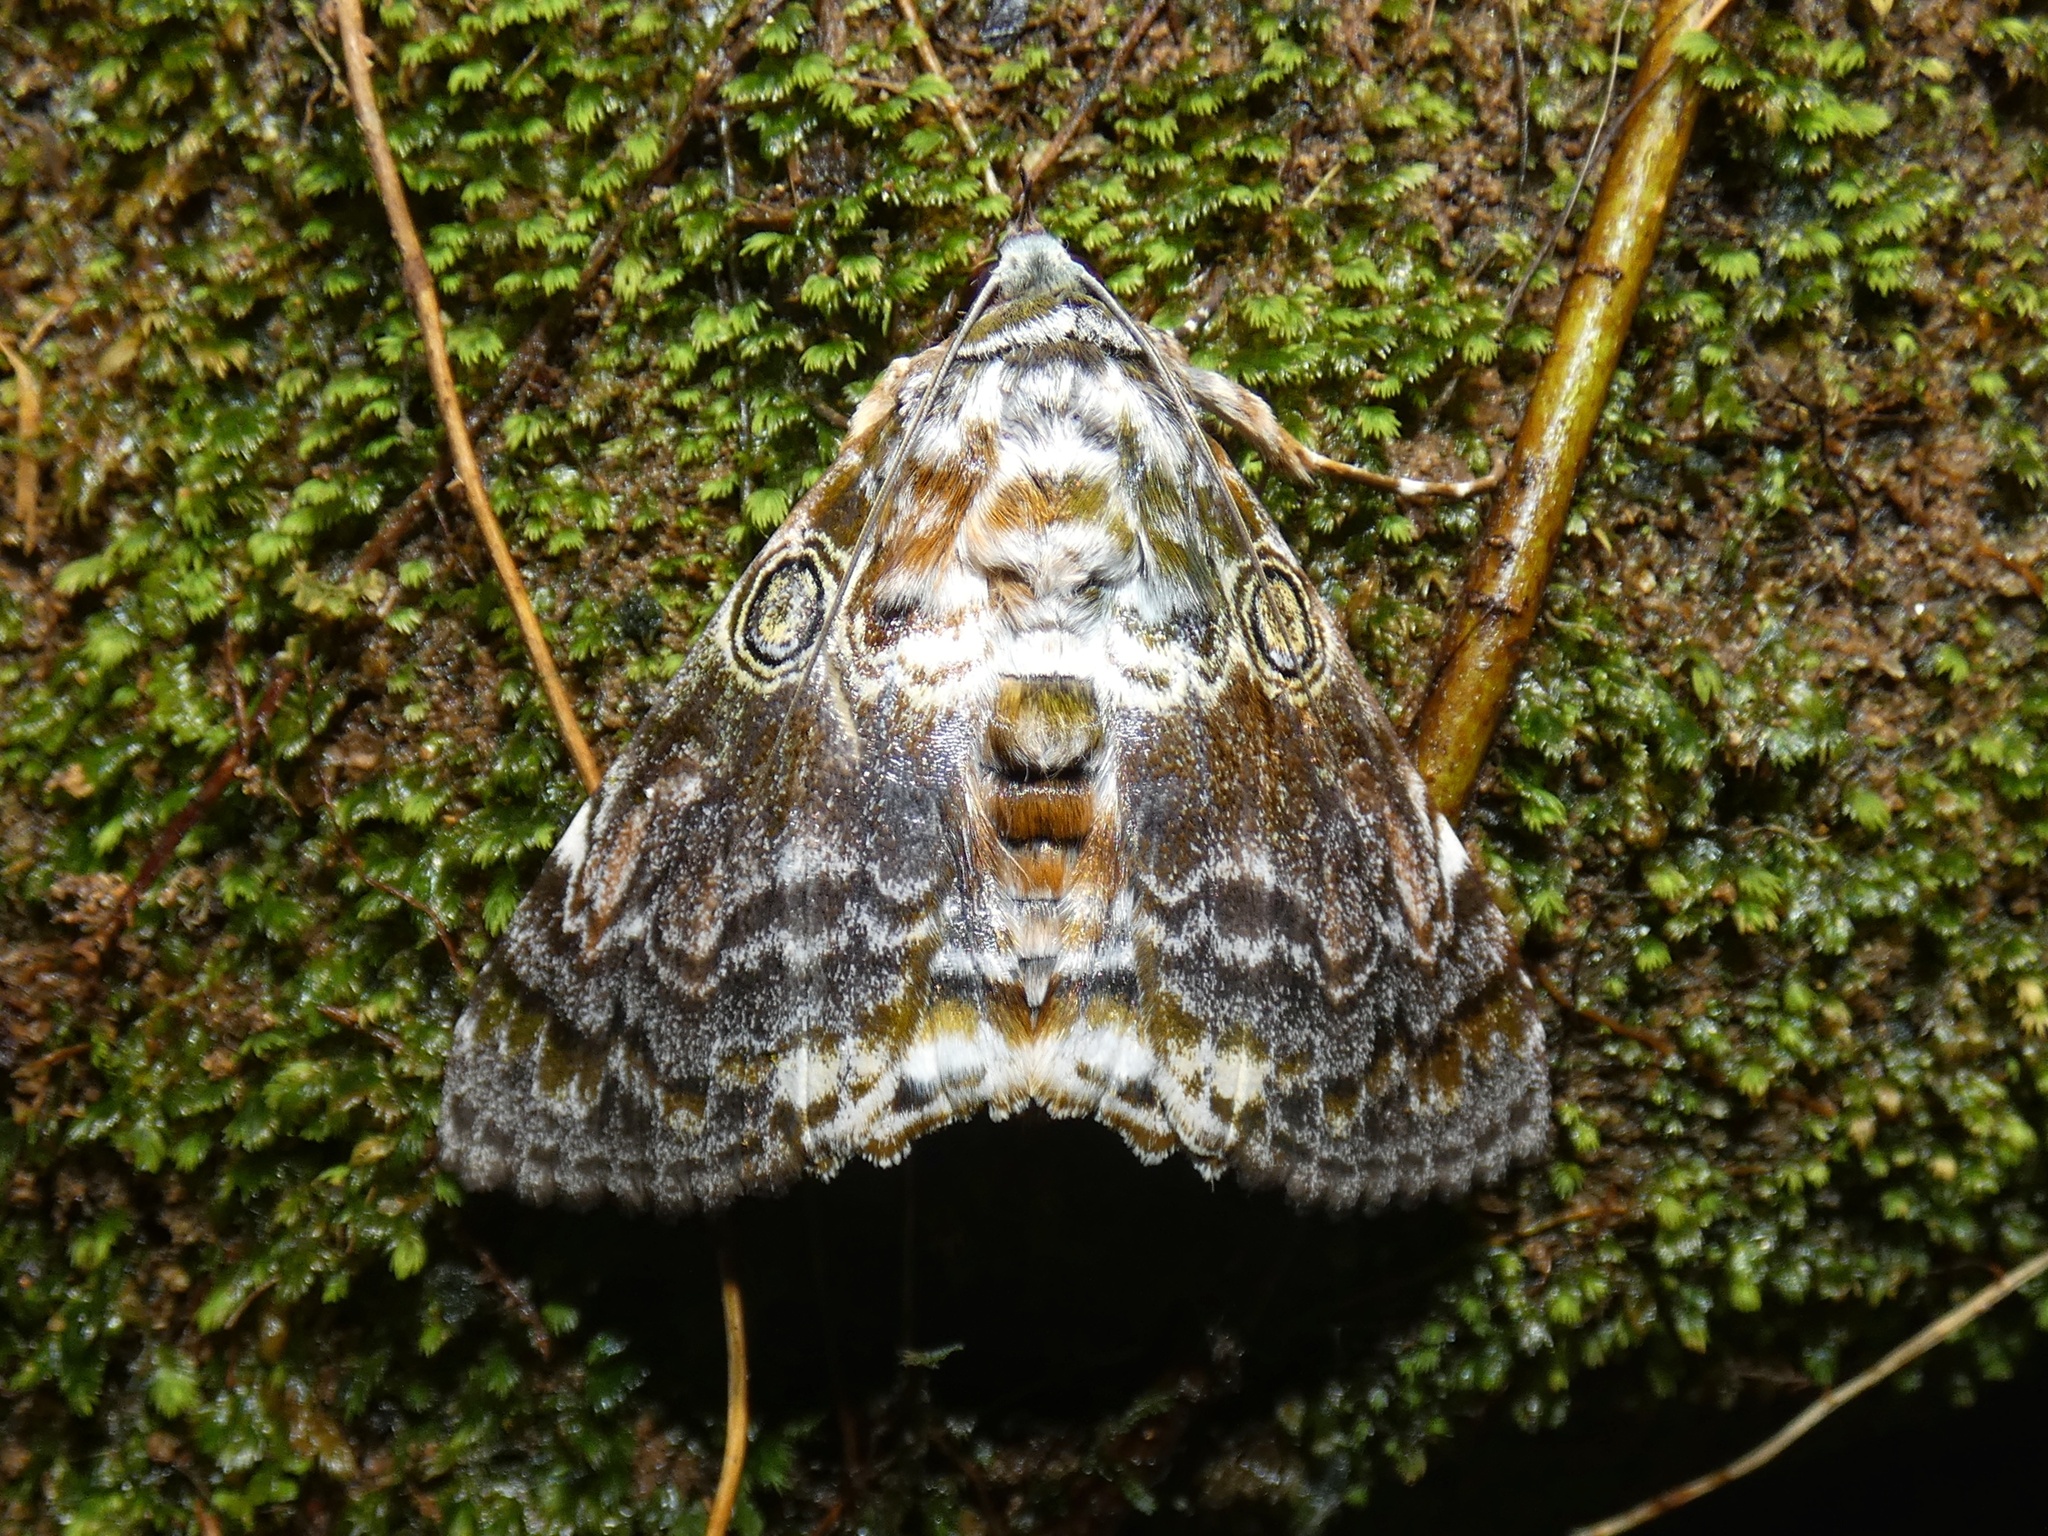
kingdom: Animalia
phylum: Arthropoda
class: Insecta
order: Lepidoptera
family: Erebidae
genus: Cyclodes
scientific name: Cyclodes spectans
